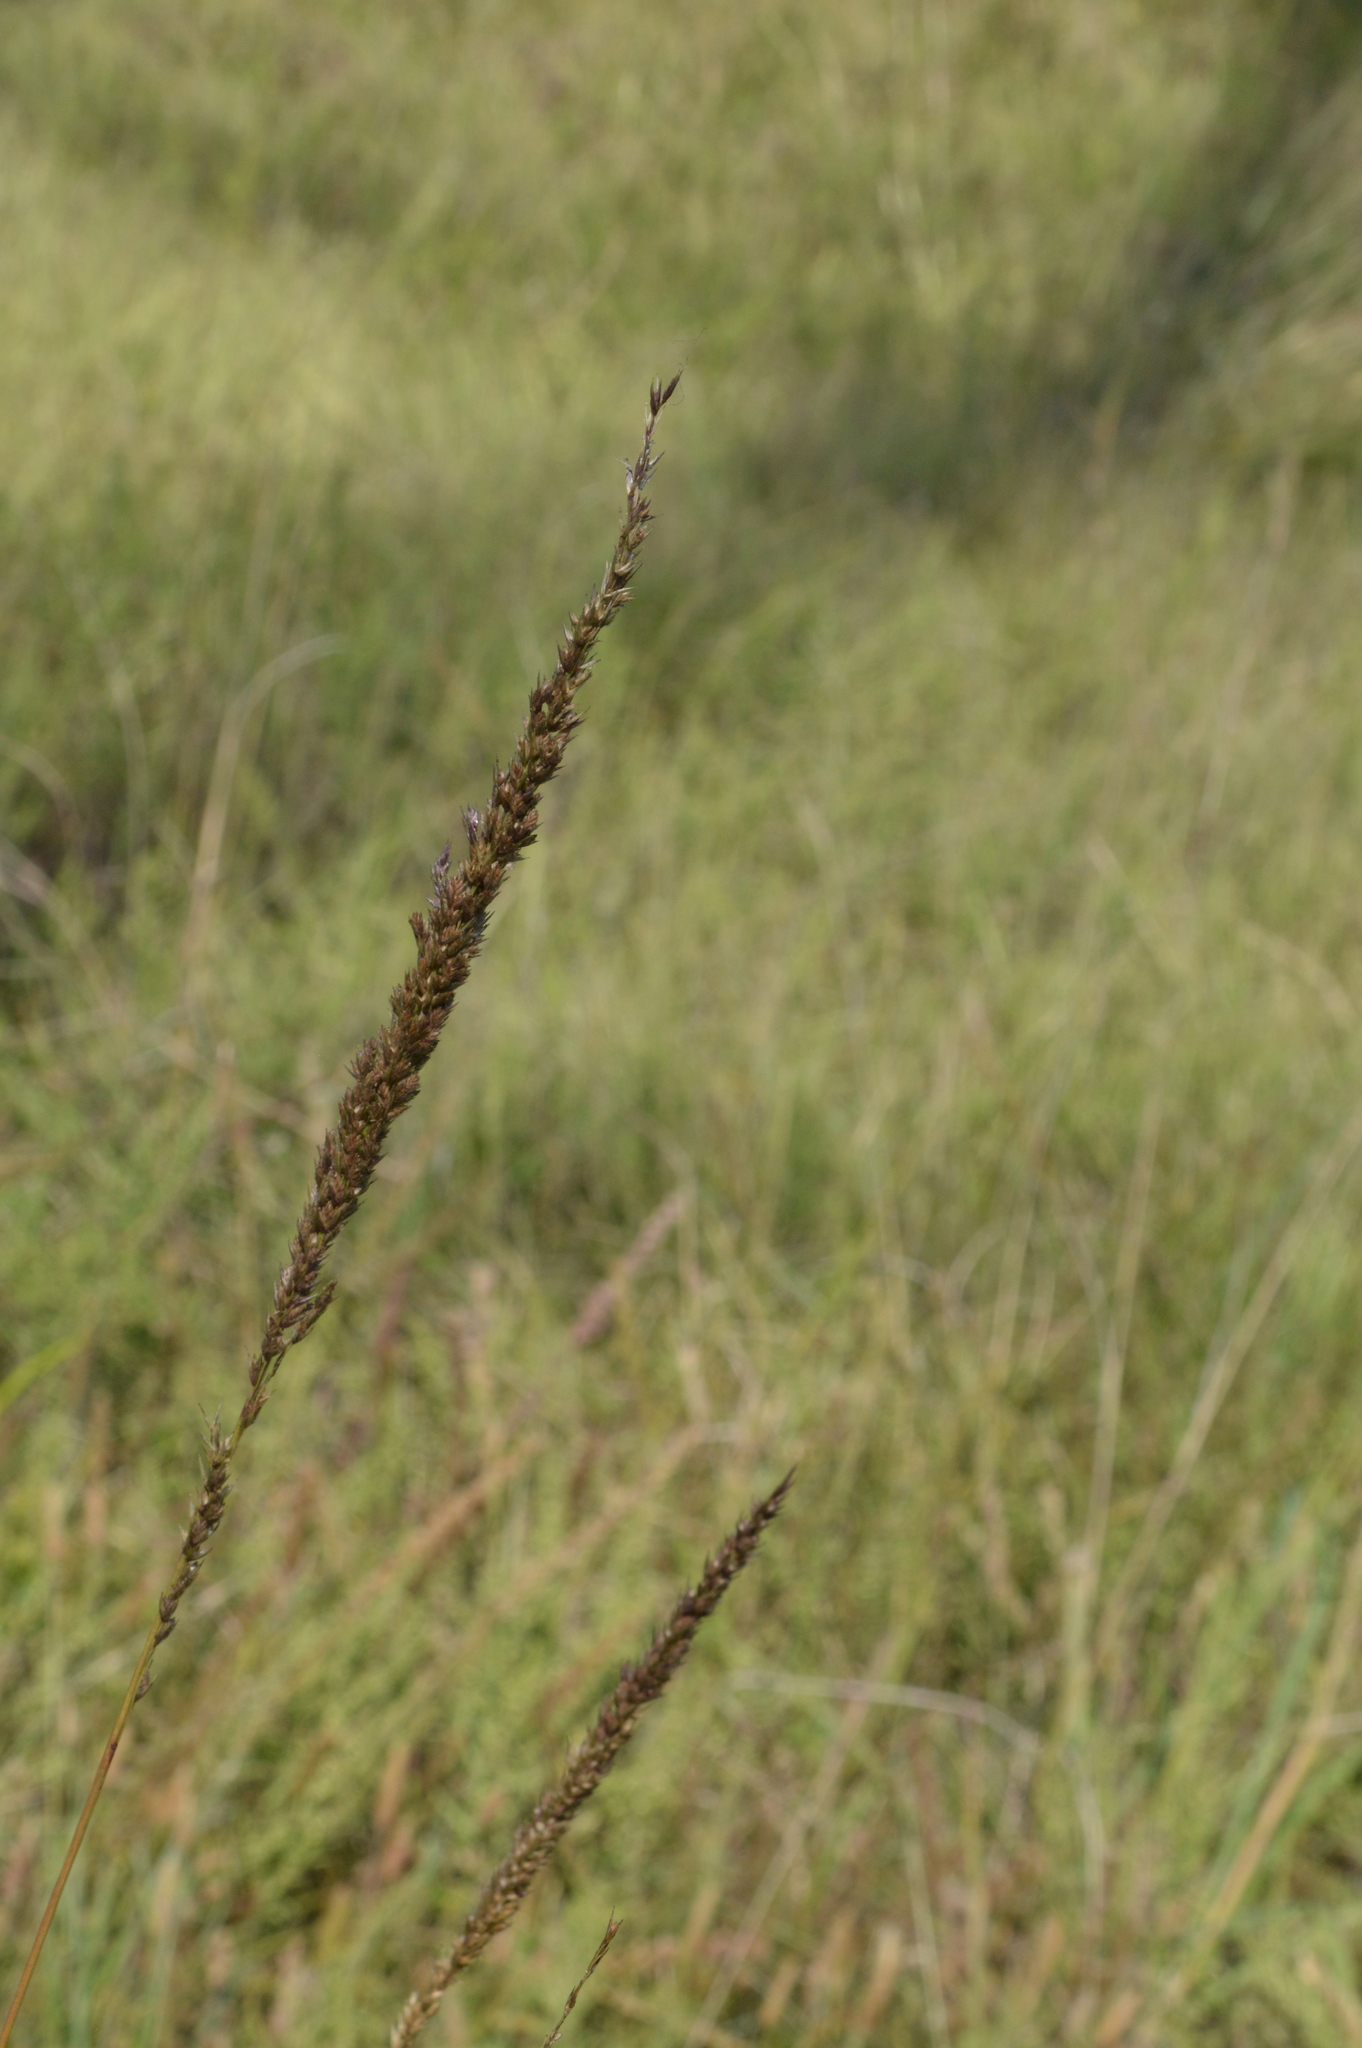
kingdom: Plantae
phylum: Tracheophyta
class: Liliopsida
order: Poales
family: Poaceae
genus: Tridens
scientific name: Tridens strictus
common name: Long-spike tridens
